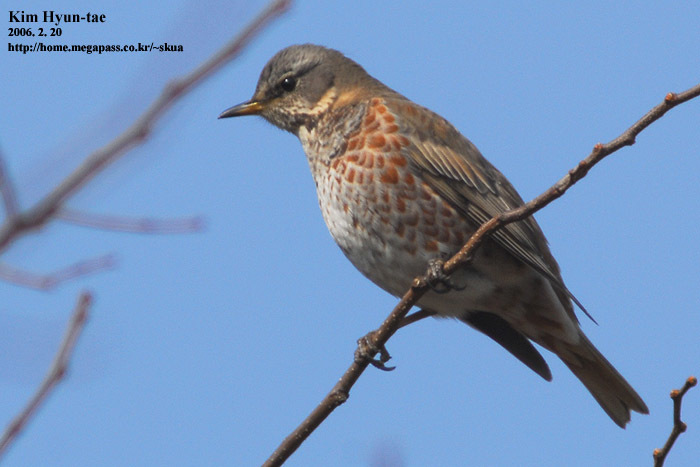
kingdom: Animalia
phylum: Chordata
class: Aves
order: Passeriformes
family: Turdidae
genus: Turdus
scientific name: Turdus naumanni
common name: Naumann's thrush
